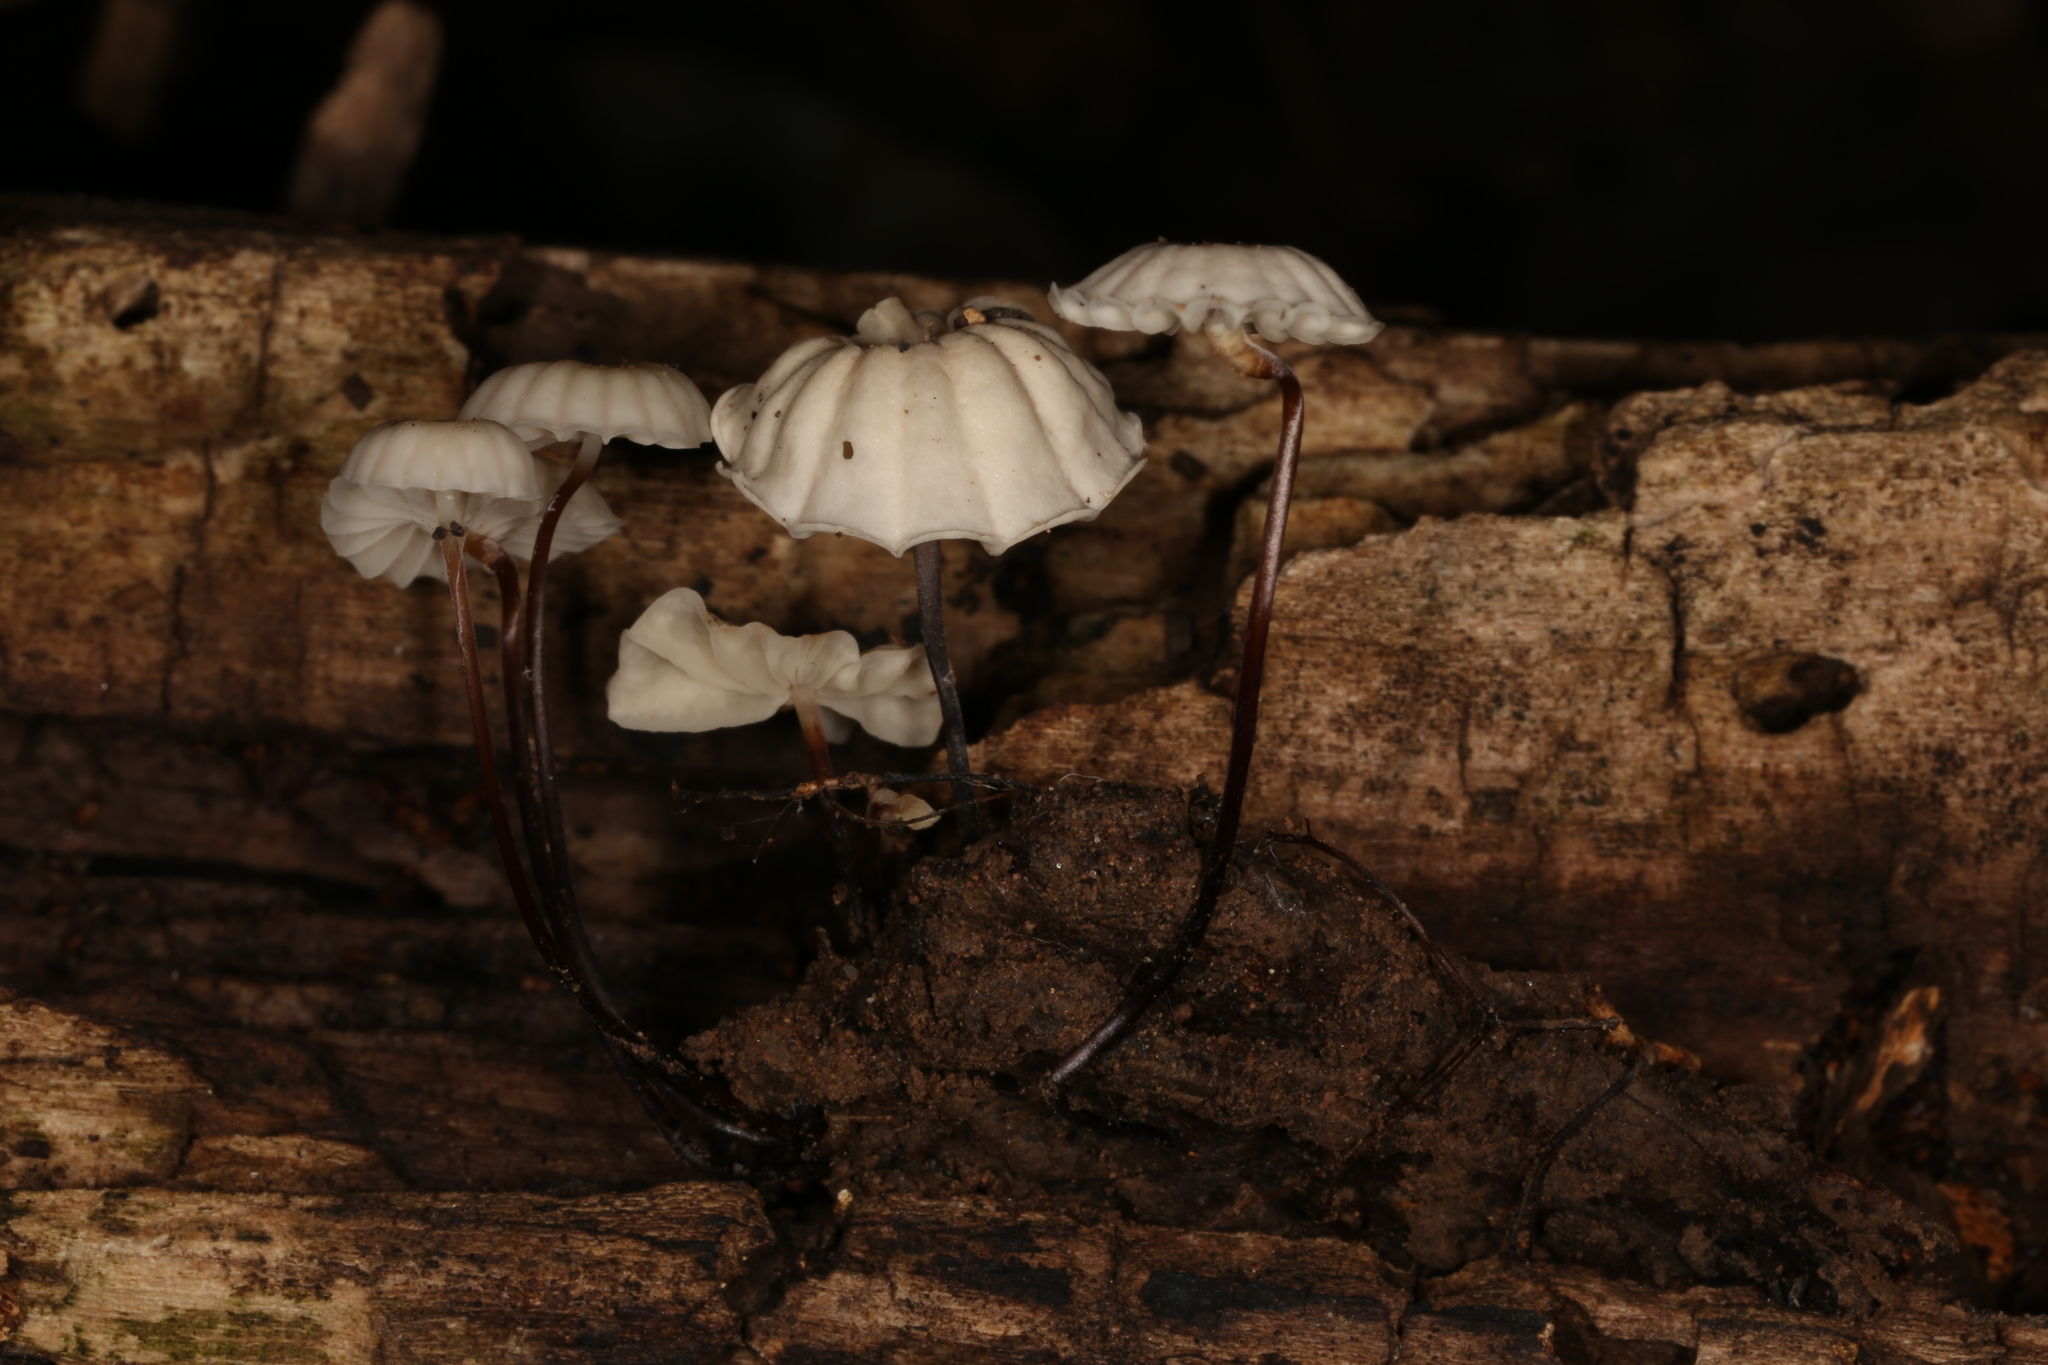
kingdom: Fungi
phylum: Basidiomycota
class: Agaricomycetes
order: Agaricales
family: Marasmiaceae
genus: Marasmius
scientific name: Marasmius rotula
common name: Collared parachute
